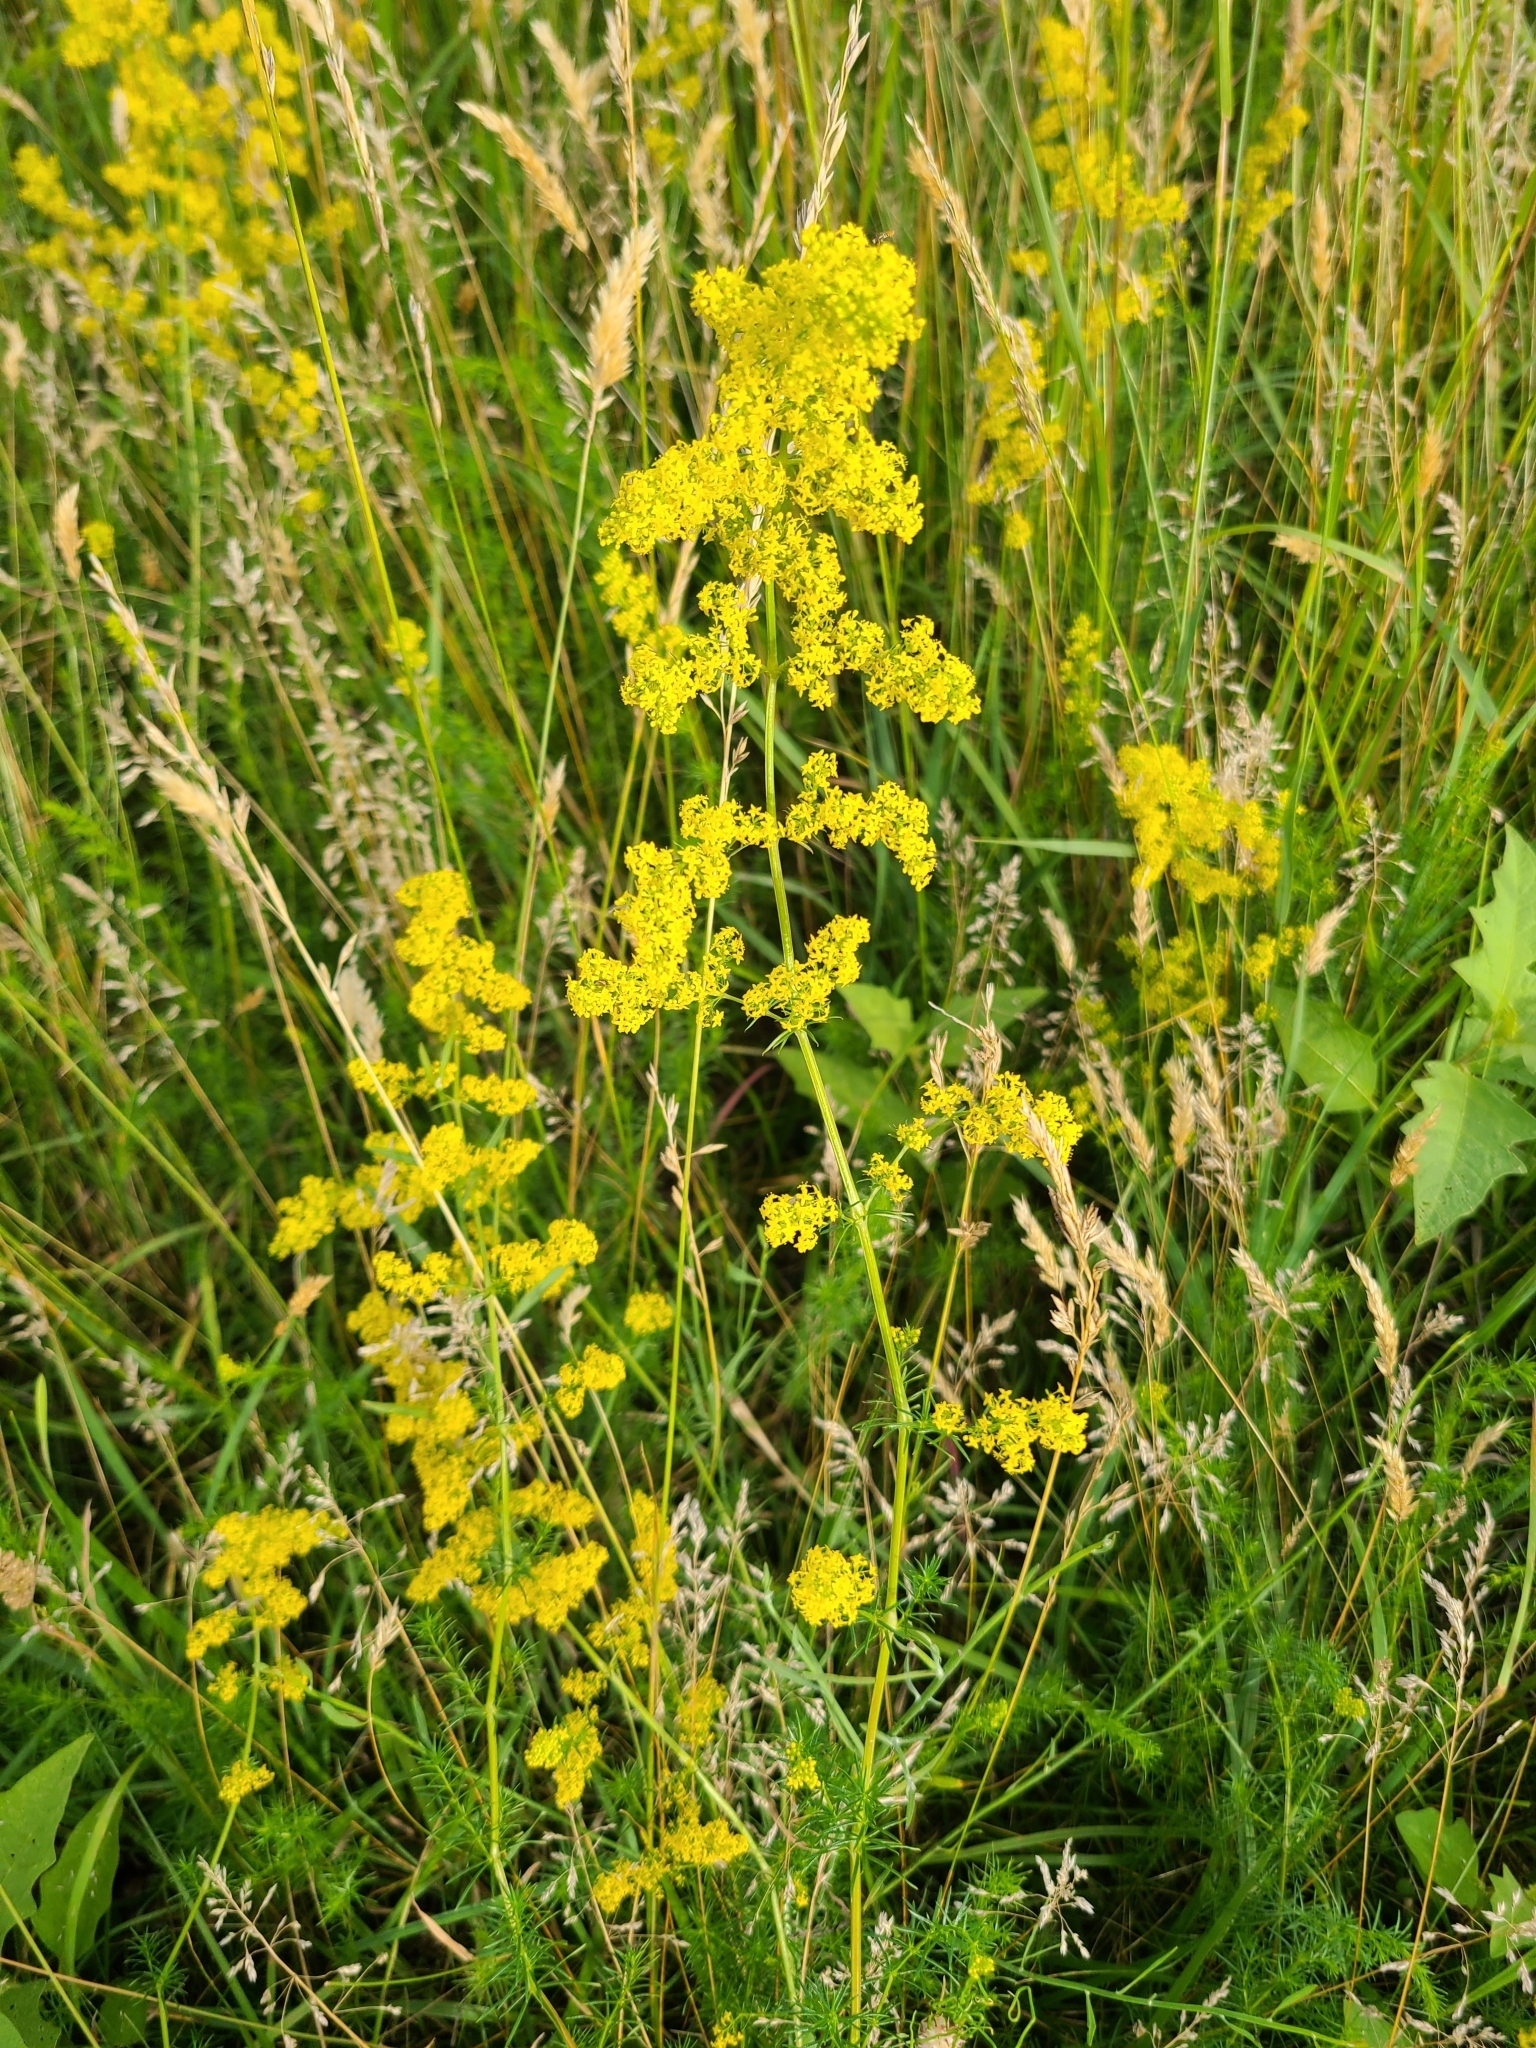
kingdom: Plantae
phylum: Tracheophyta
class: Magnoliopsida
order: Gentianales
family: Rubiaceae
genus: Galium
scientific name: Galium verum
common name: Lady's bedstraw
